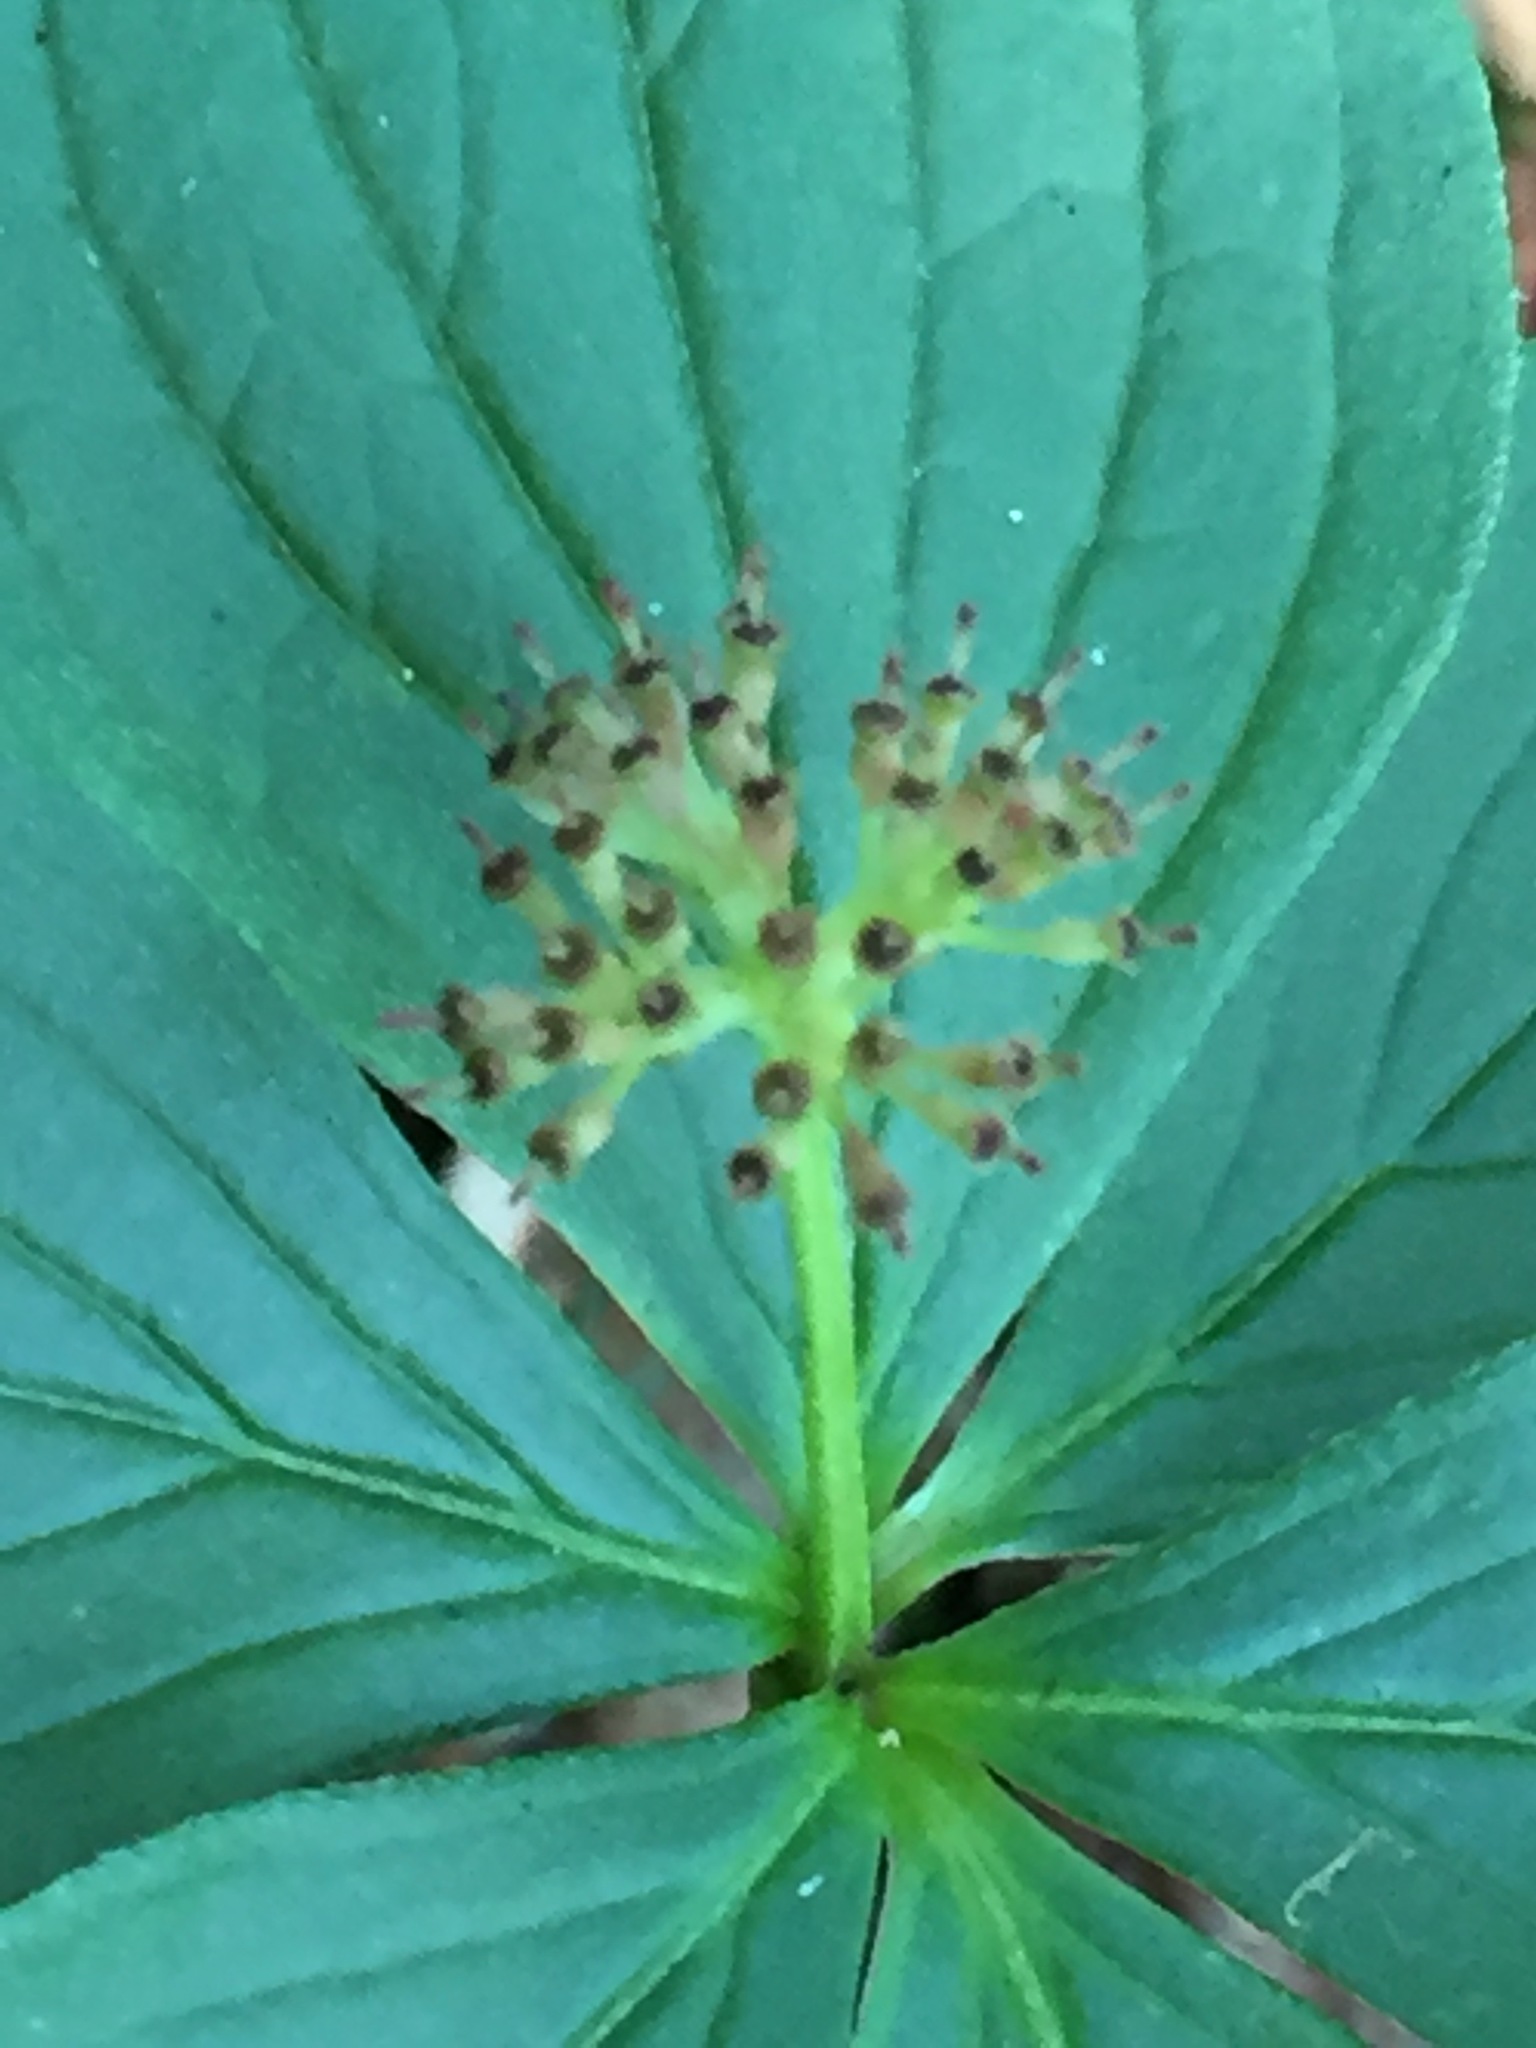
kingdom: Plantae
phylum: Tracheophyta
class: Magnoliopsida
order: Cornales
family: Cornaceae
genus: Cornus
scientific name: Cornus canadensis
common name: Creeping dogwood
